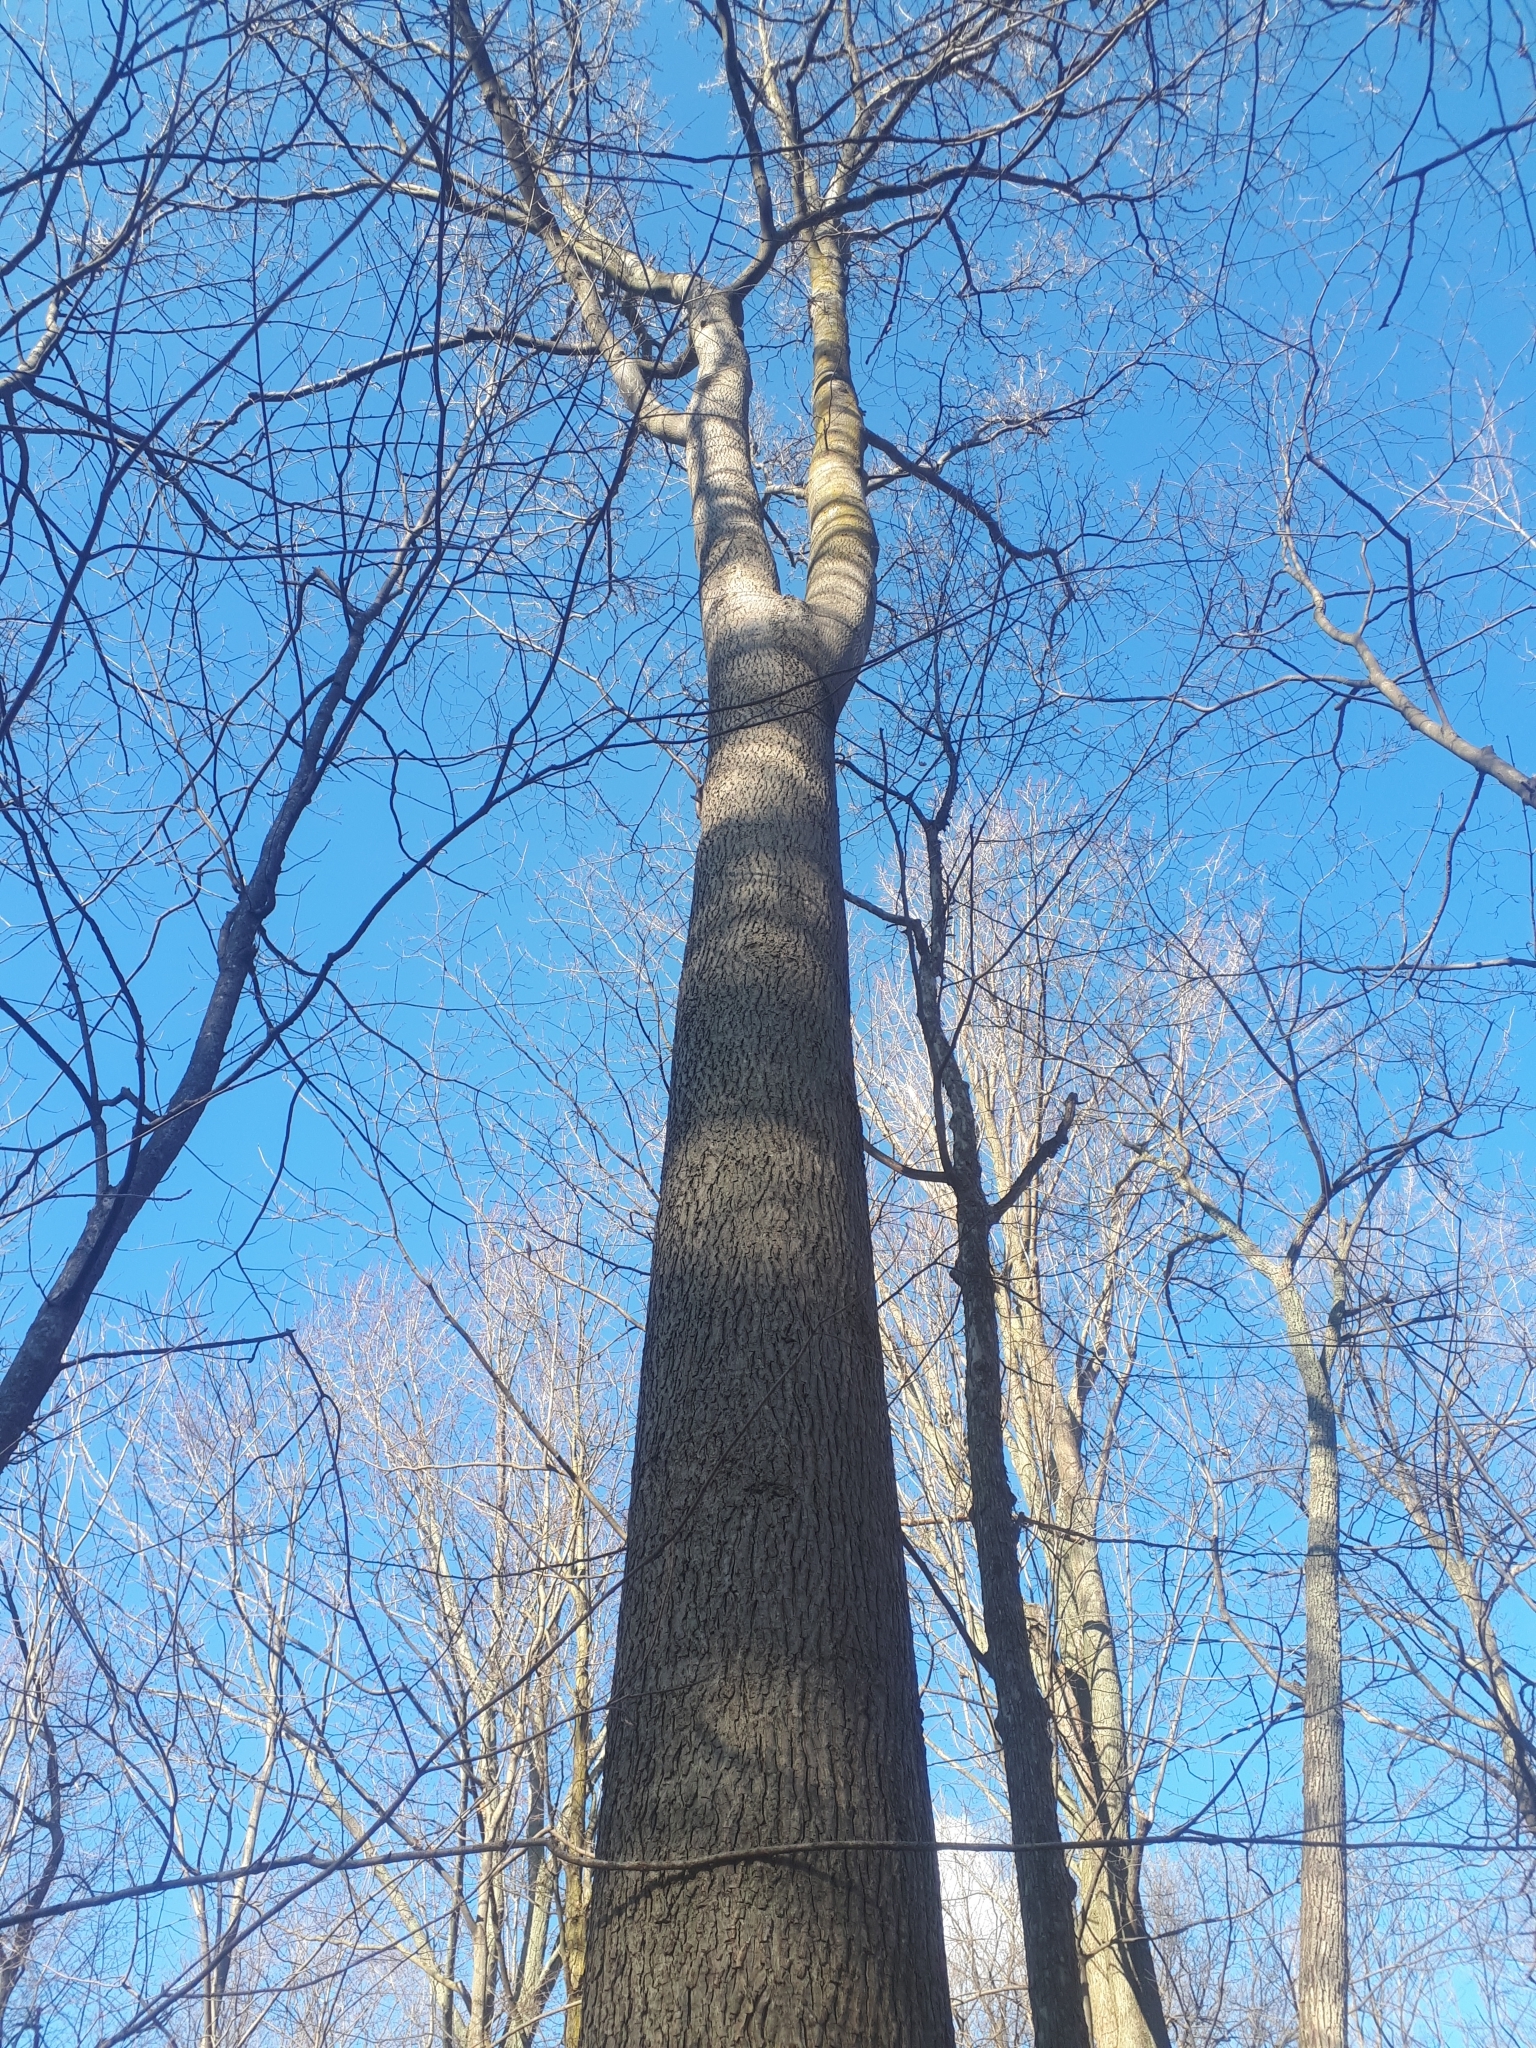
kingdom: Plantae
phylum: Tracheophyta
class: Magnoliopsida
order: Fagales
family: Juglandaceae
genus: Carya
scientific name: Carya cordiformis
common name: Bitternut hickory
